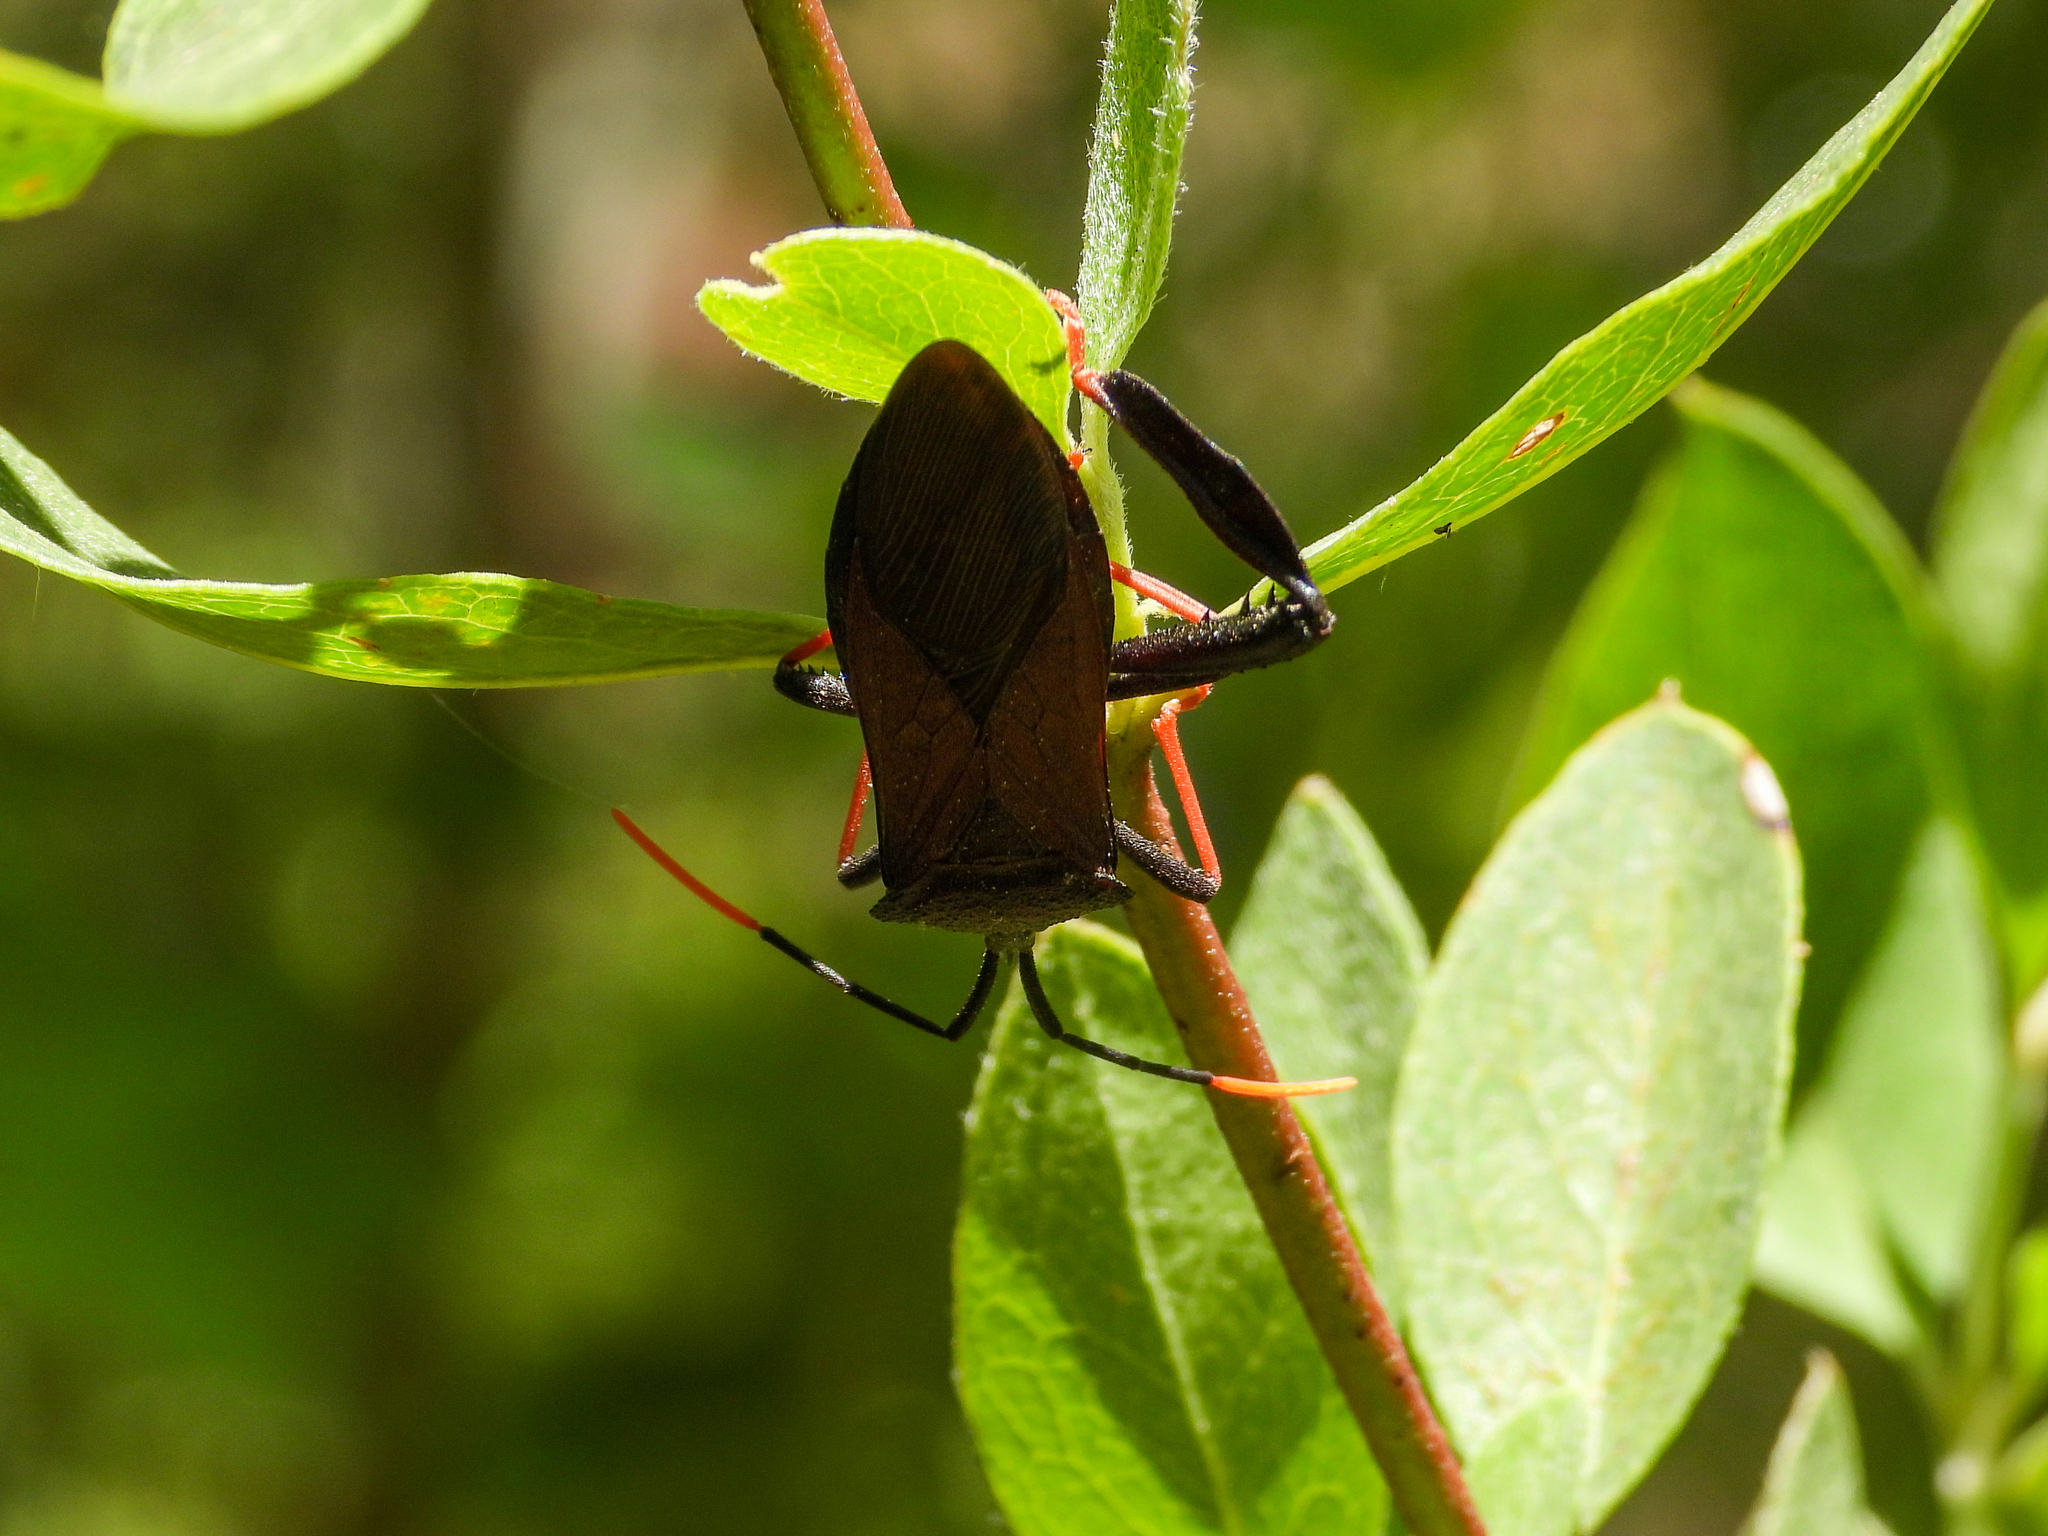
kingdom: Animalia
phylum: Arthropoda
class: Insecta
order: Hemiptera
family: Coreidae
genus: Acanthocephala
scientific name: Acanthocephala thomasi
